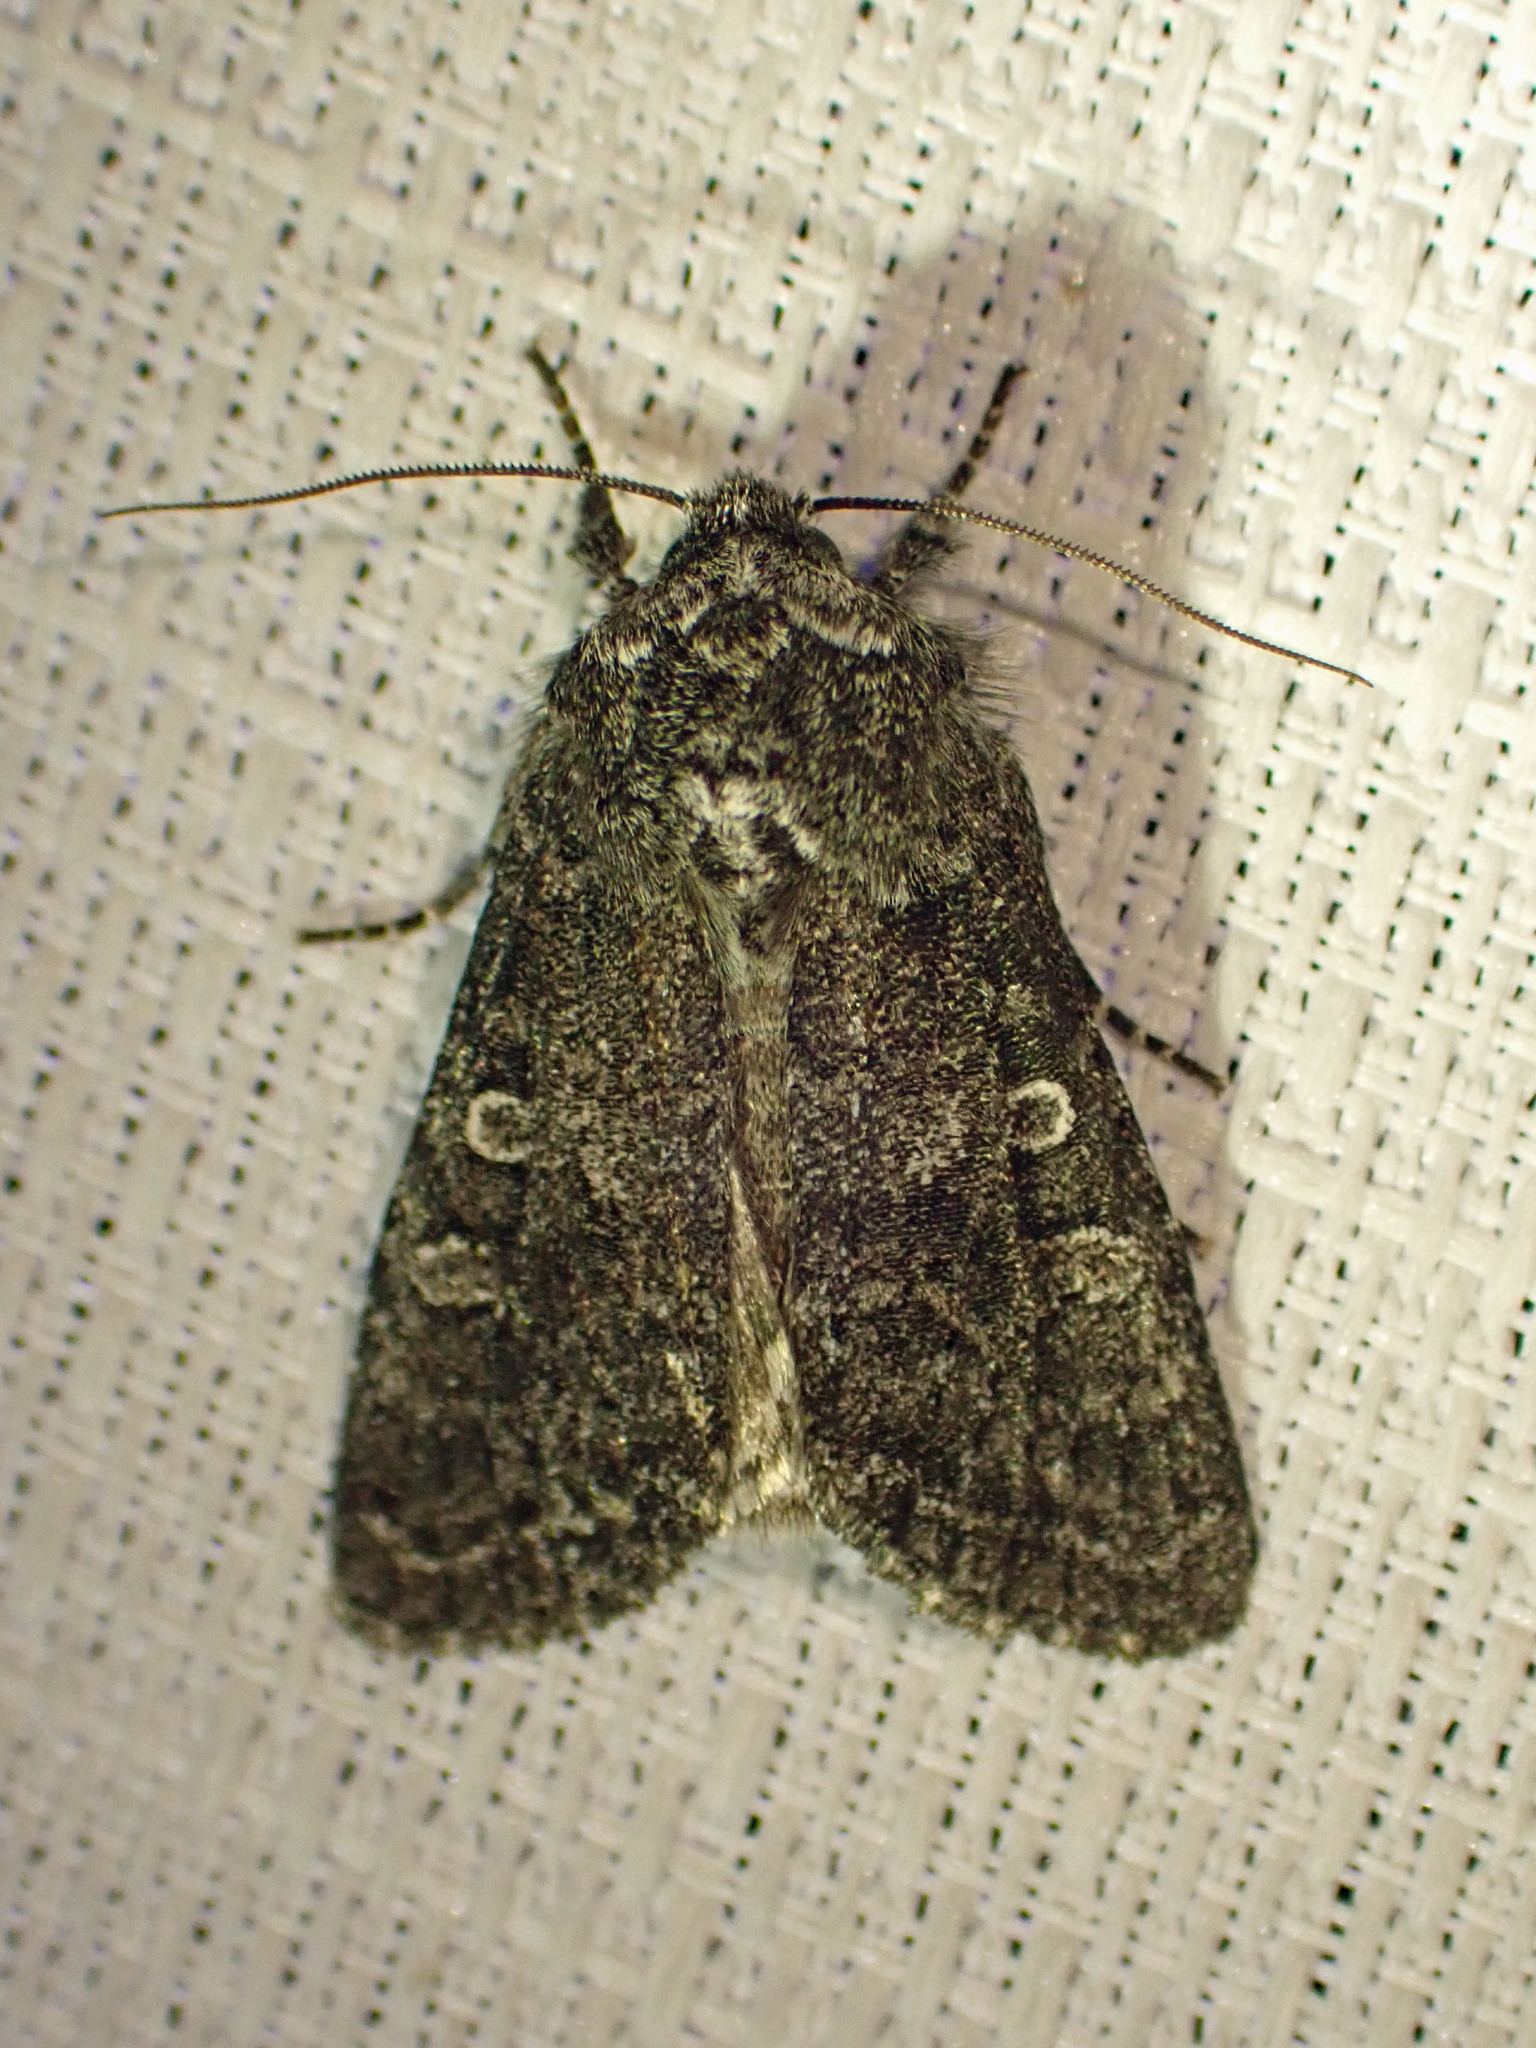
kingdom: Animalia
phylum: Arthropoda
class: Insecta
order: Lepidoptera
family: Noctuidae
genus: Egira
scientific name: Egira dolosa
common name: Lined black aspen cat.
